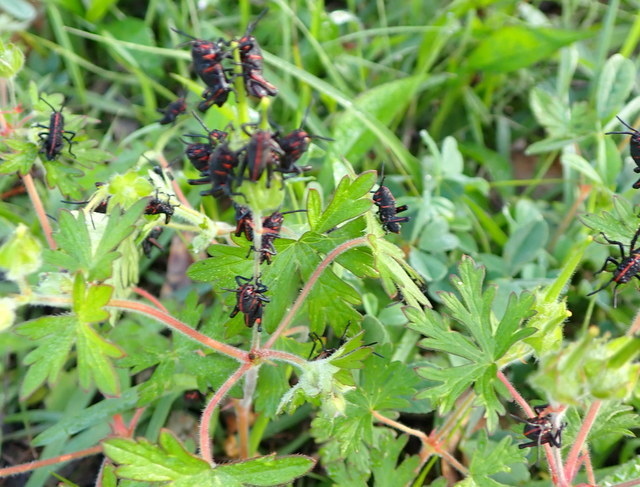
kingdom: Animalia
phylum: Arthropoda
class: Insecta
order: Orthoptera
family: Romaleidae
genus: Romalea
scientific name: Romalea microptera
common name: Eastern lubber grasshopper
